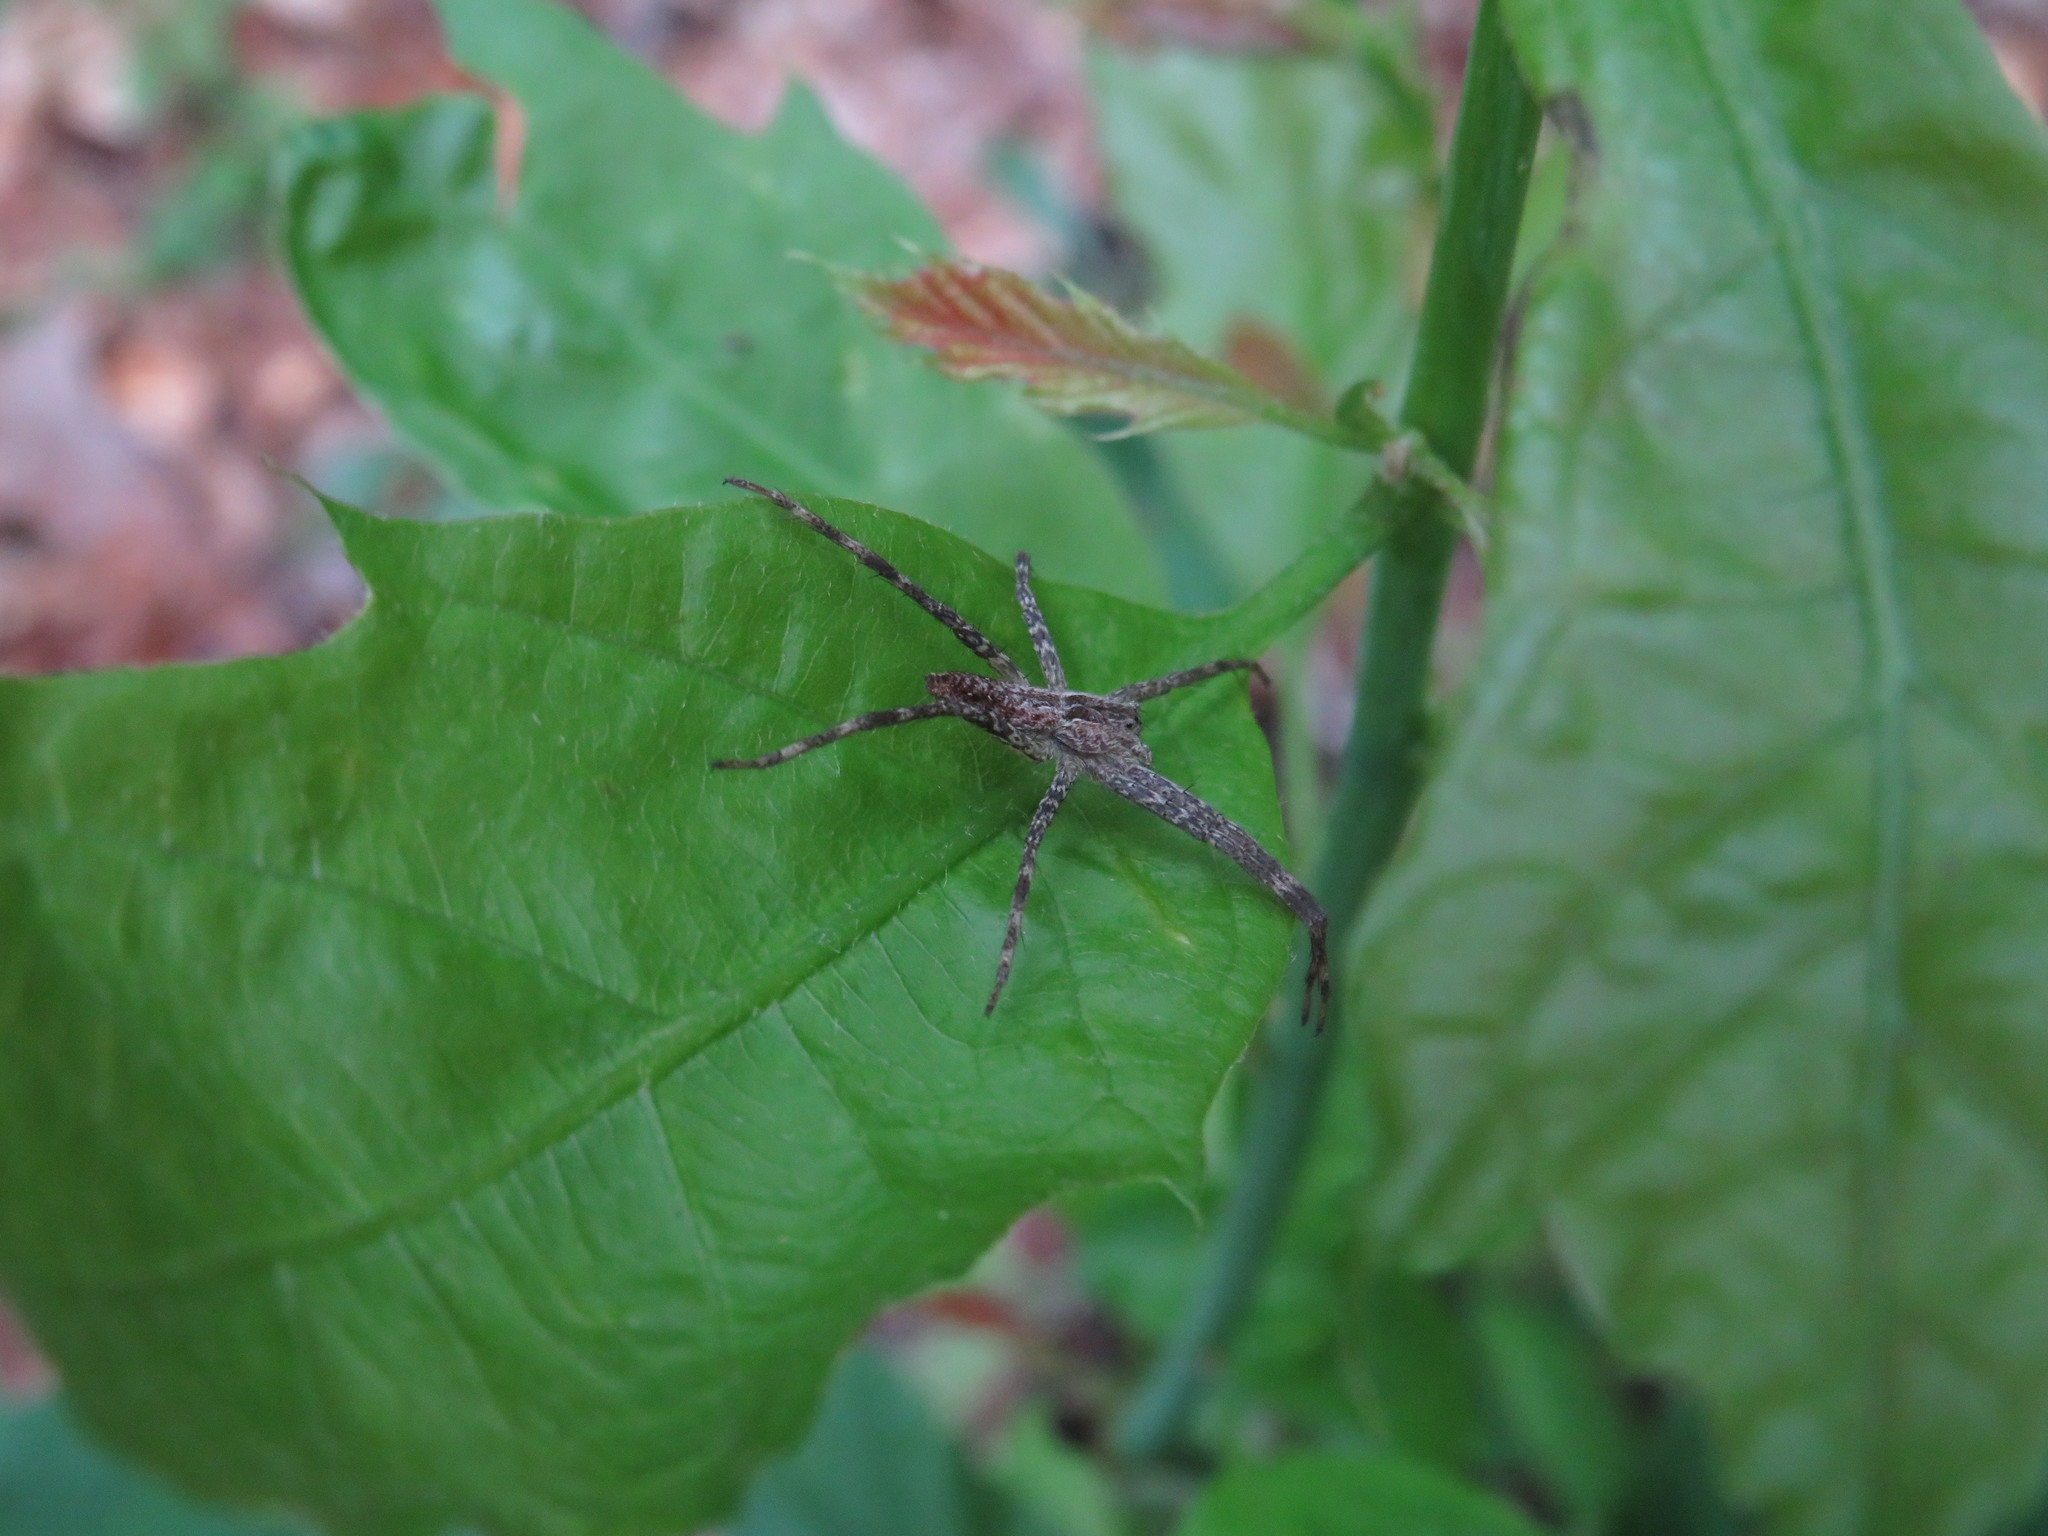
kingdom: Animalia
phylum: Arthropoda
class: Arachnida
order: Araneae
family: Pisauridae
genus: Pisaurina
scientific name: Pisaurina mira
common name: American nursery web spider
